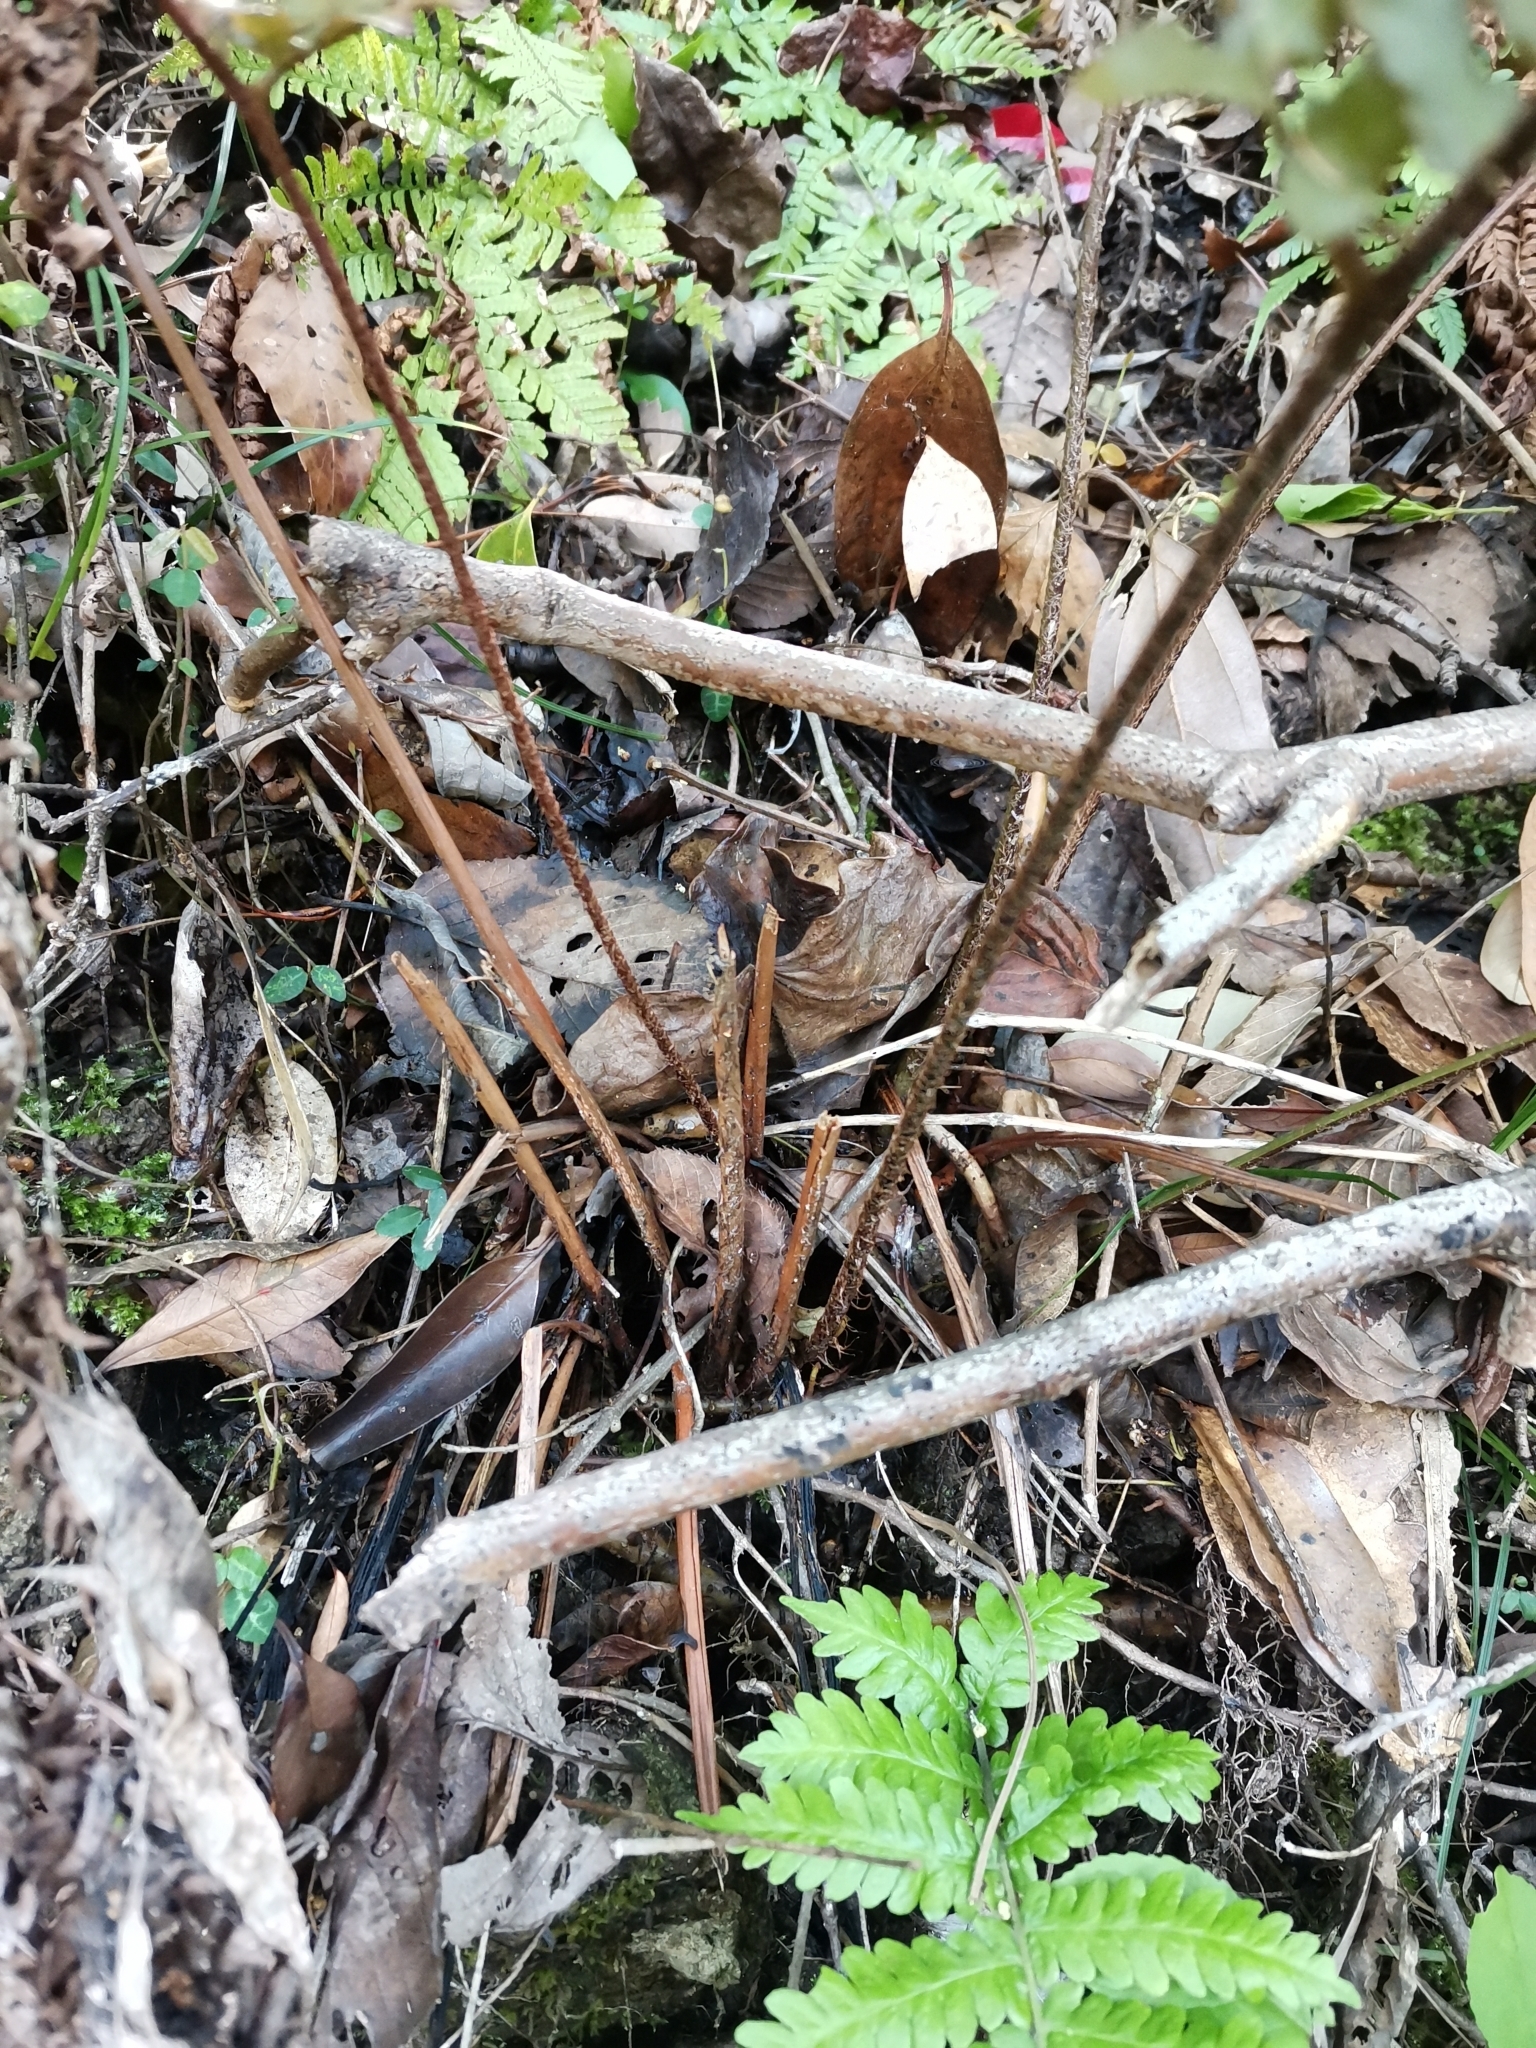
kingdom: Plantae
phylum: Tracheophyta
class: Polypodiopsida
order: Polypodiales
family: Dryopteridaceae
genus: Dryopteris
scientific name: Dryopteris erythrosora
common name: Autumn fern
